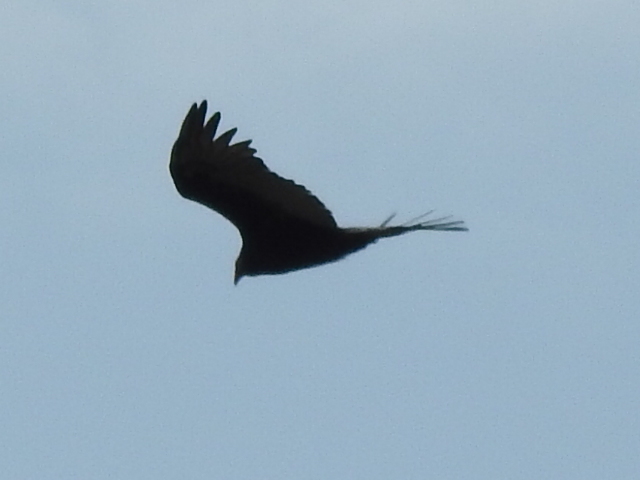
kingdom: Animalia
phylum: Chordata
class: Aves
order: Accipitriformes
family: Cathartidae
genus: Cathartes
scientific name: Cathartes aura
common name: Turkey vulture
